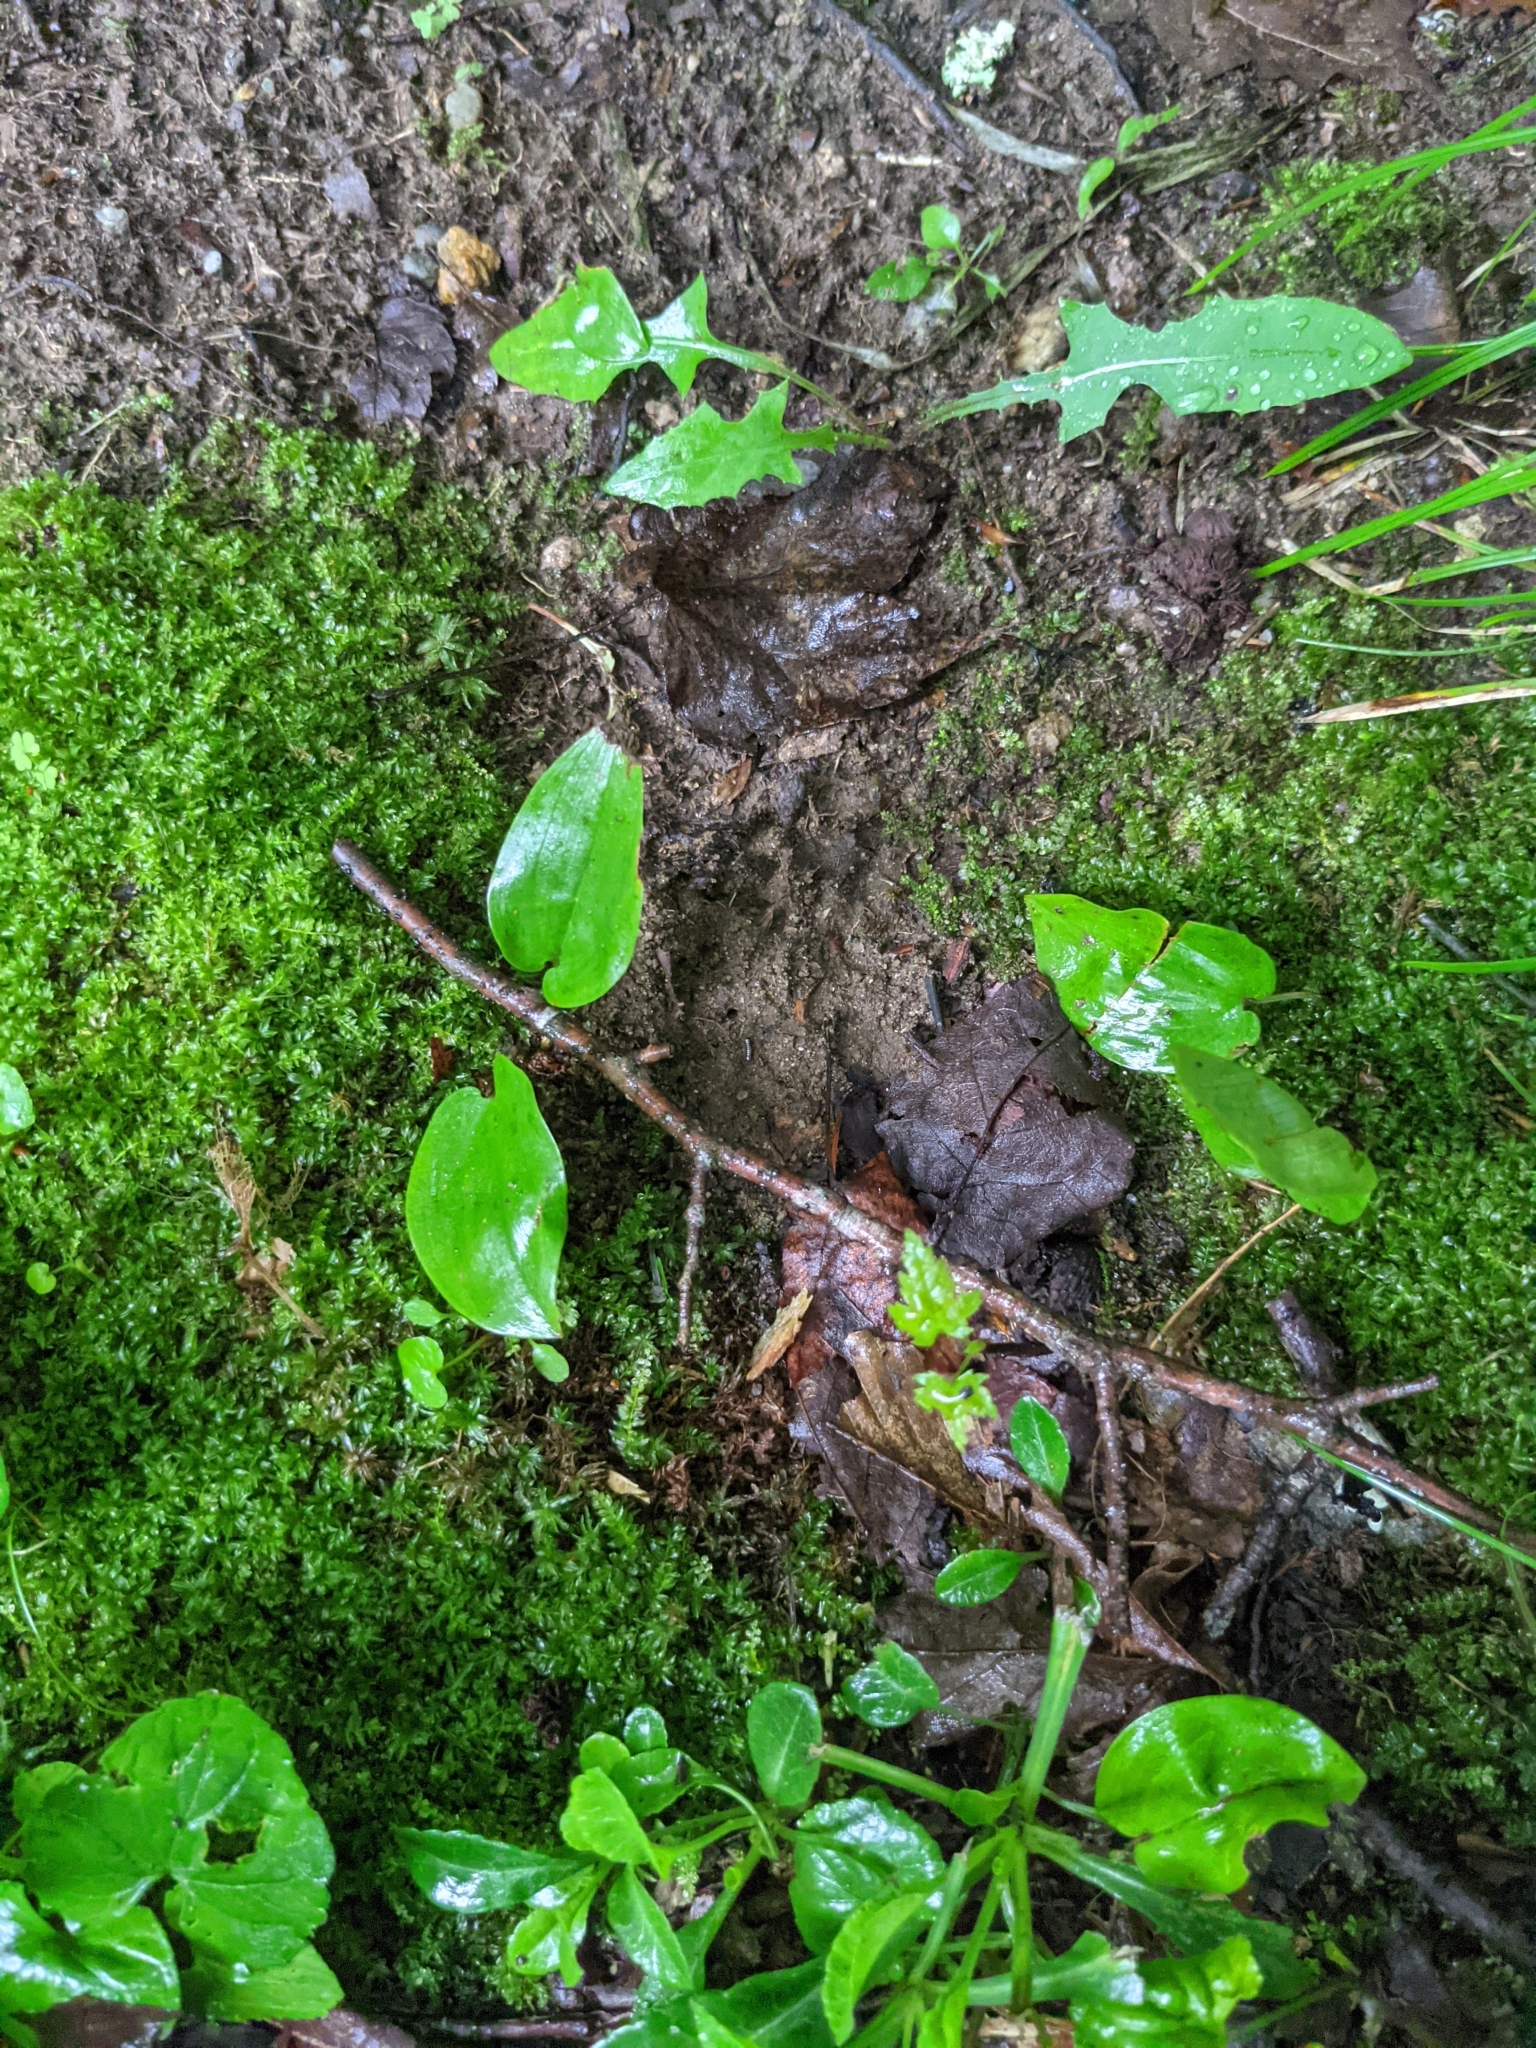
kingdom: Plantae
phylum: Tracheophyta
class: Liliopsida
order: Asparagales
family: Asparagaceae
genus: Maianthemum
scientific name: Maianthemum canadense
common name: False lily-of-the-valley
